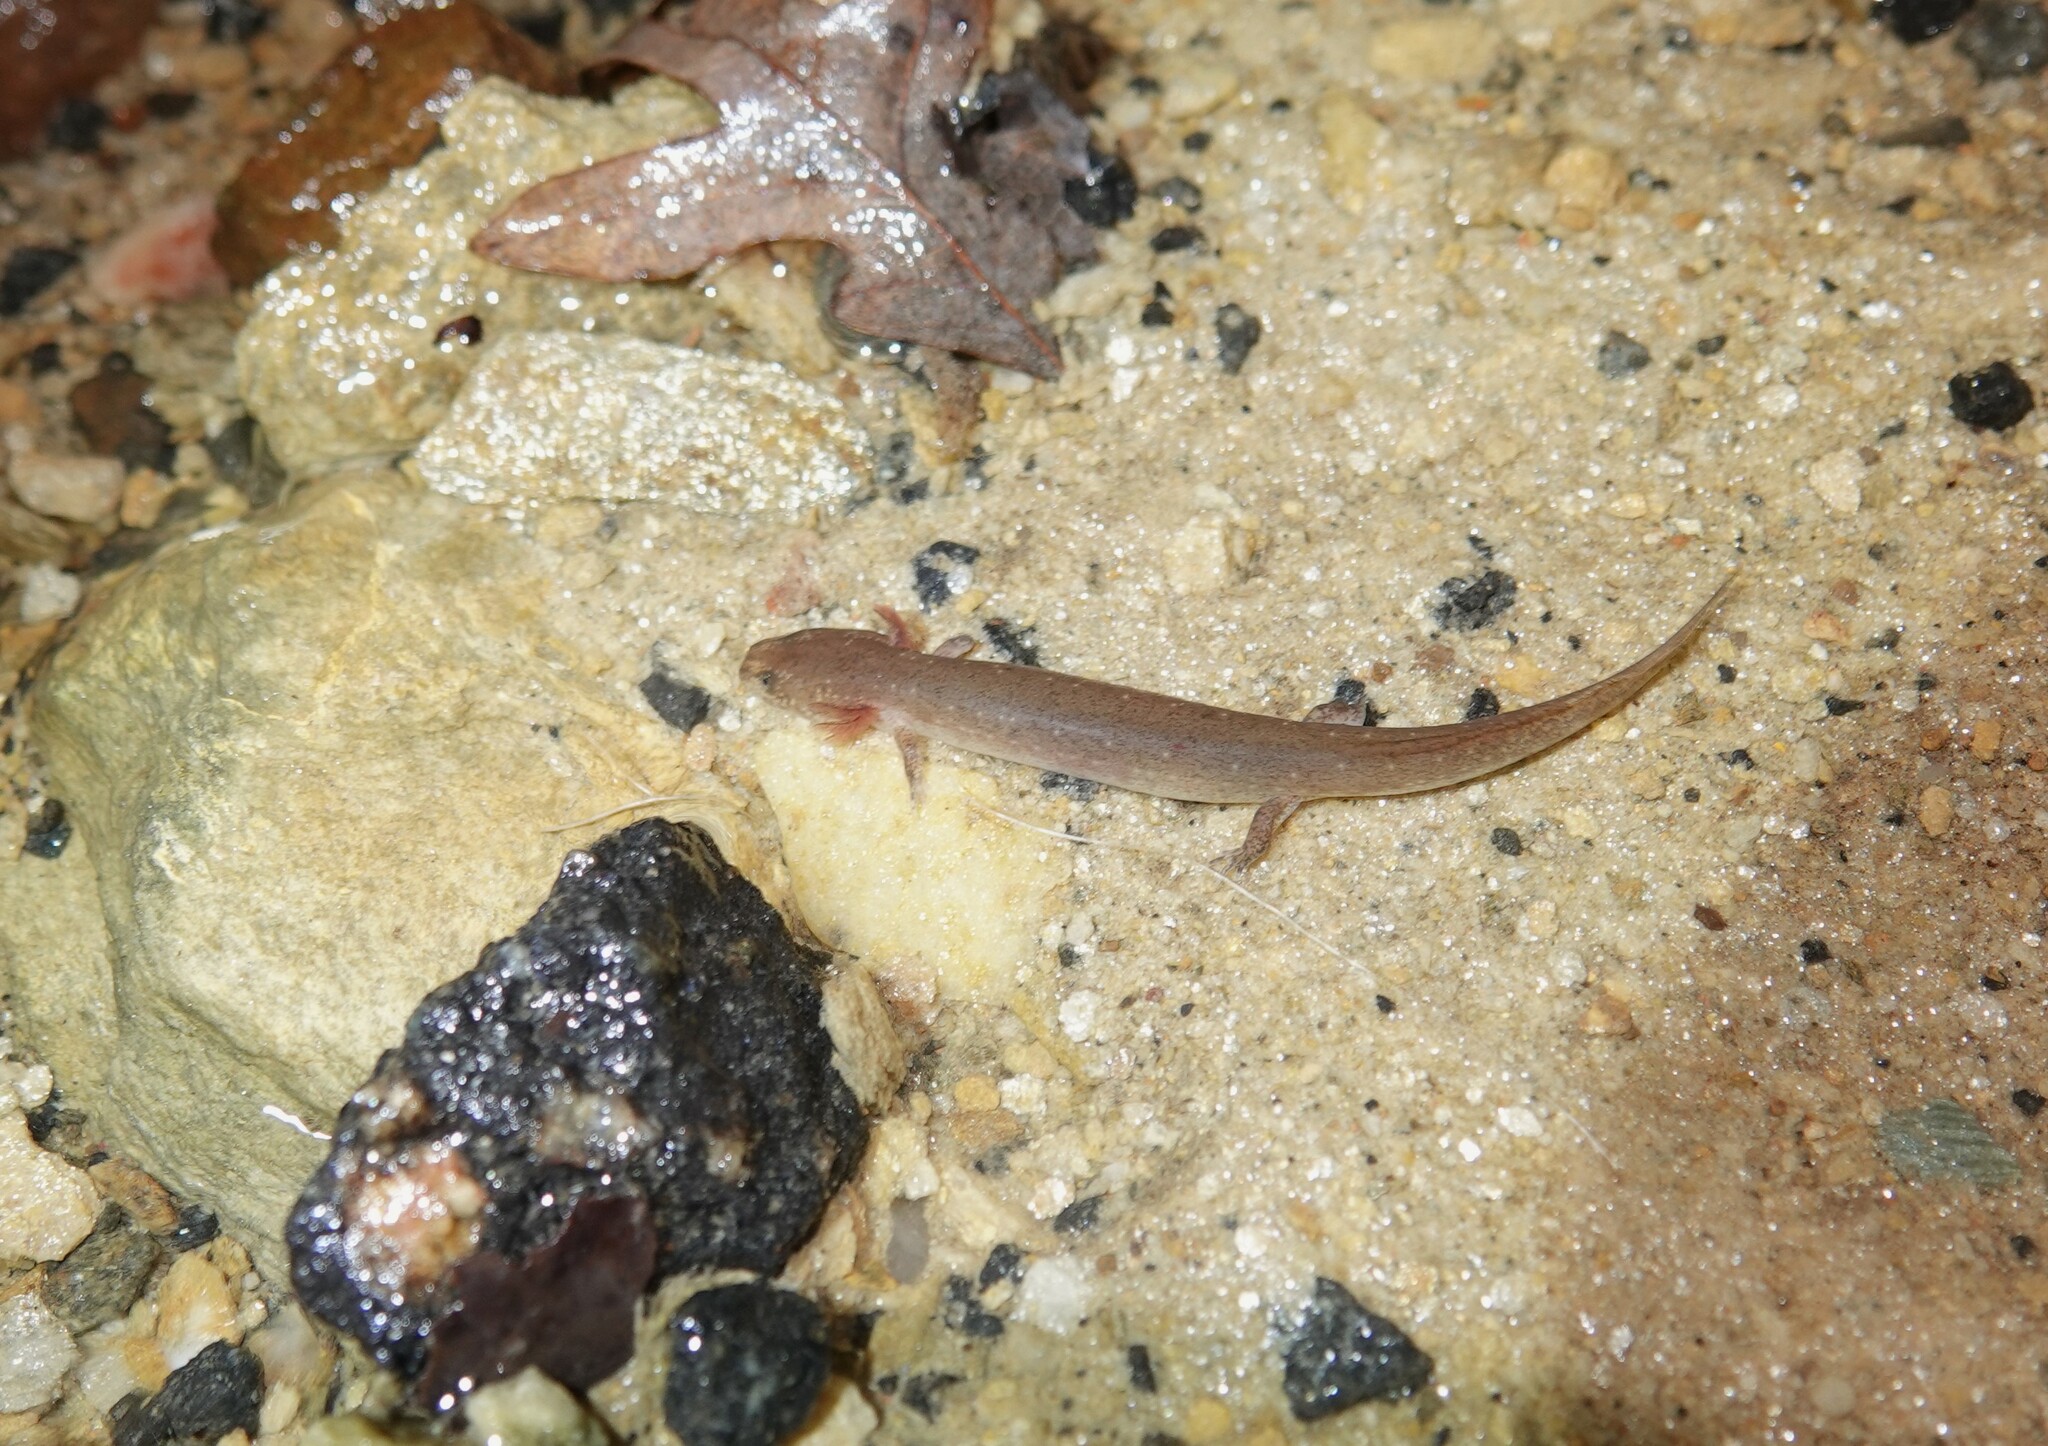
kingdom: Animalia
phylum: Chordata
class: Amphibia
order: Caudata
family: Plethodontidae
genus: Pseudotriton
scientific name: Pseudotriton ruber
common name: Red salamander
